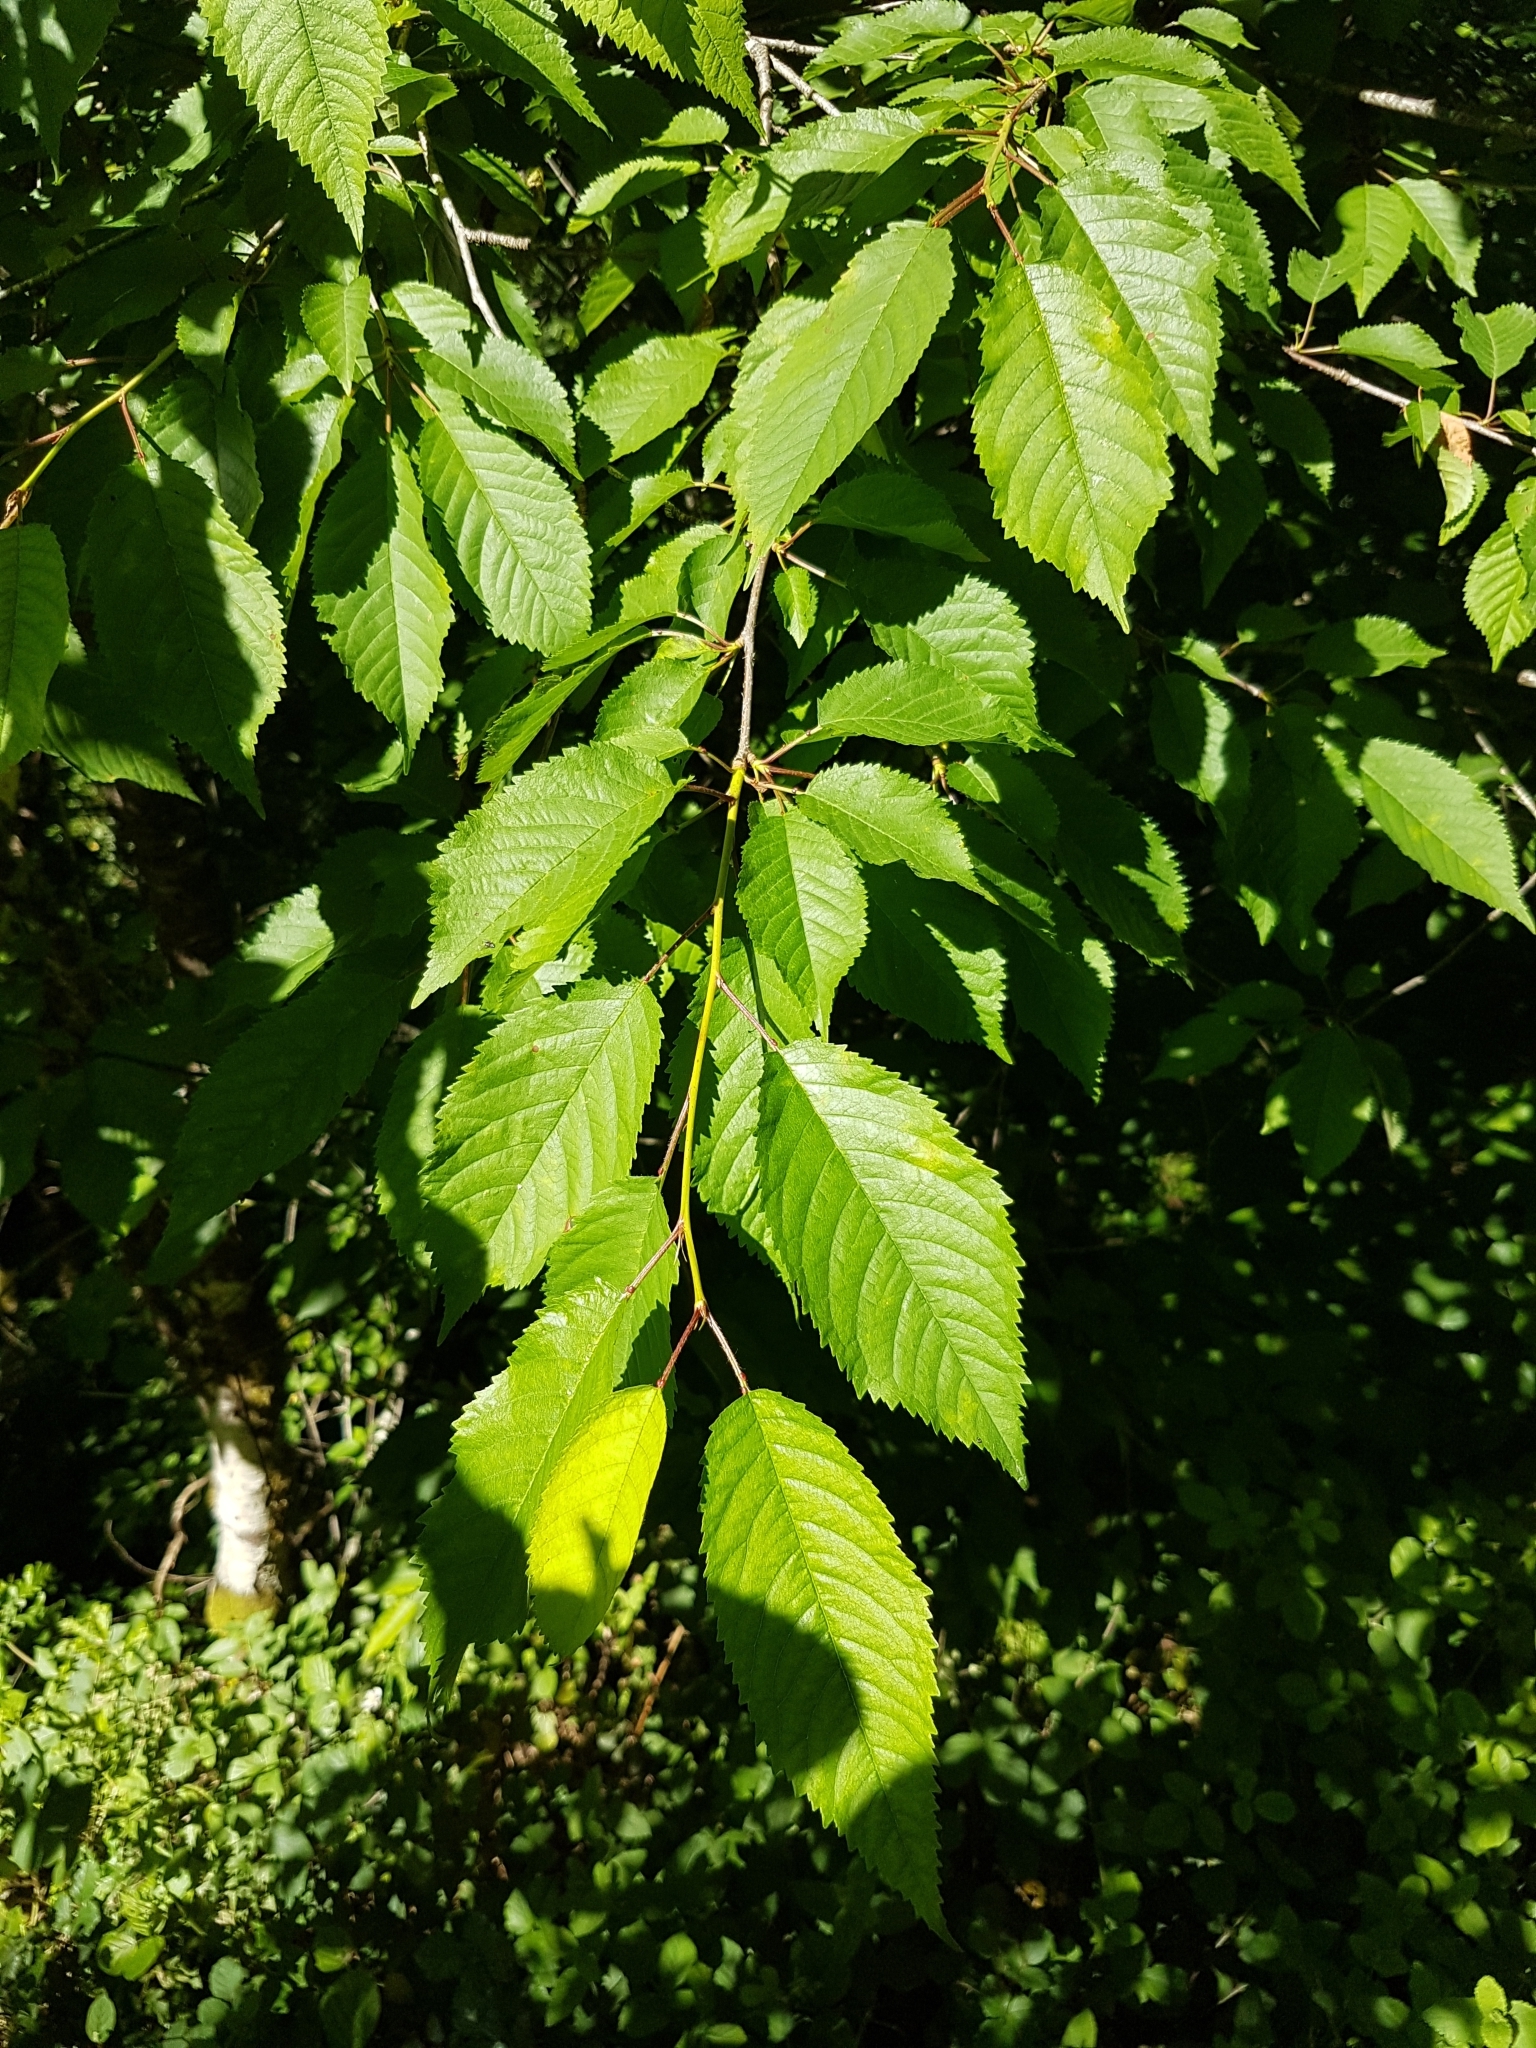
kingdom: Plantae
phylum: Tracheophyta
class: Magnoliopsida
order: Rosales
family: Rosaceae
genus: Prunus
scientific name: Prunus avium
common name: Sweet cherry
